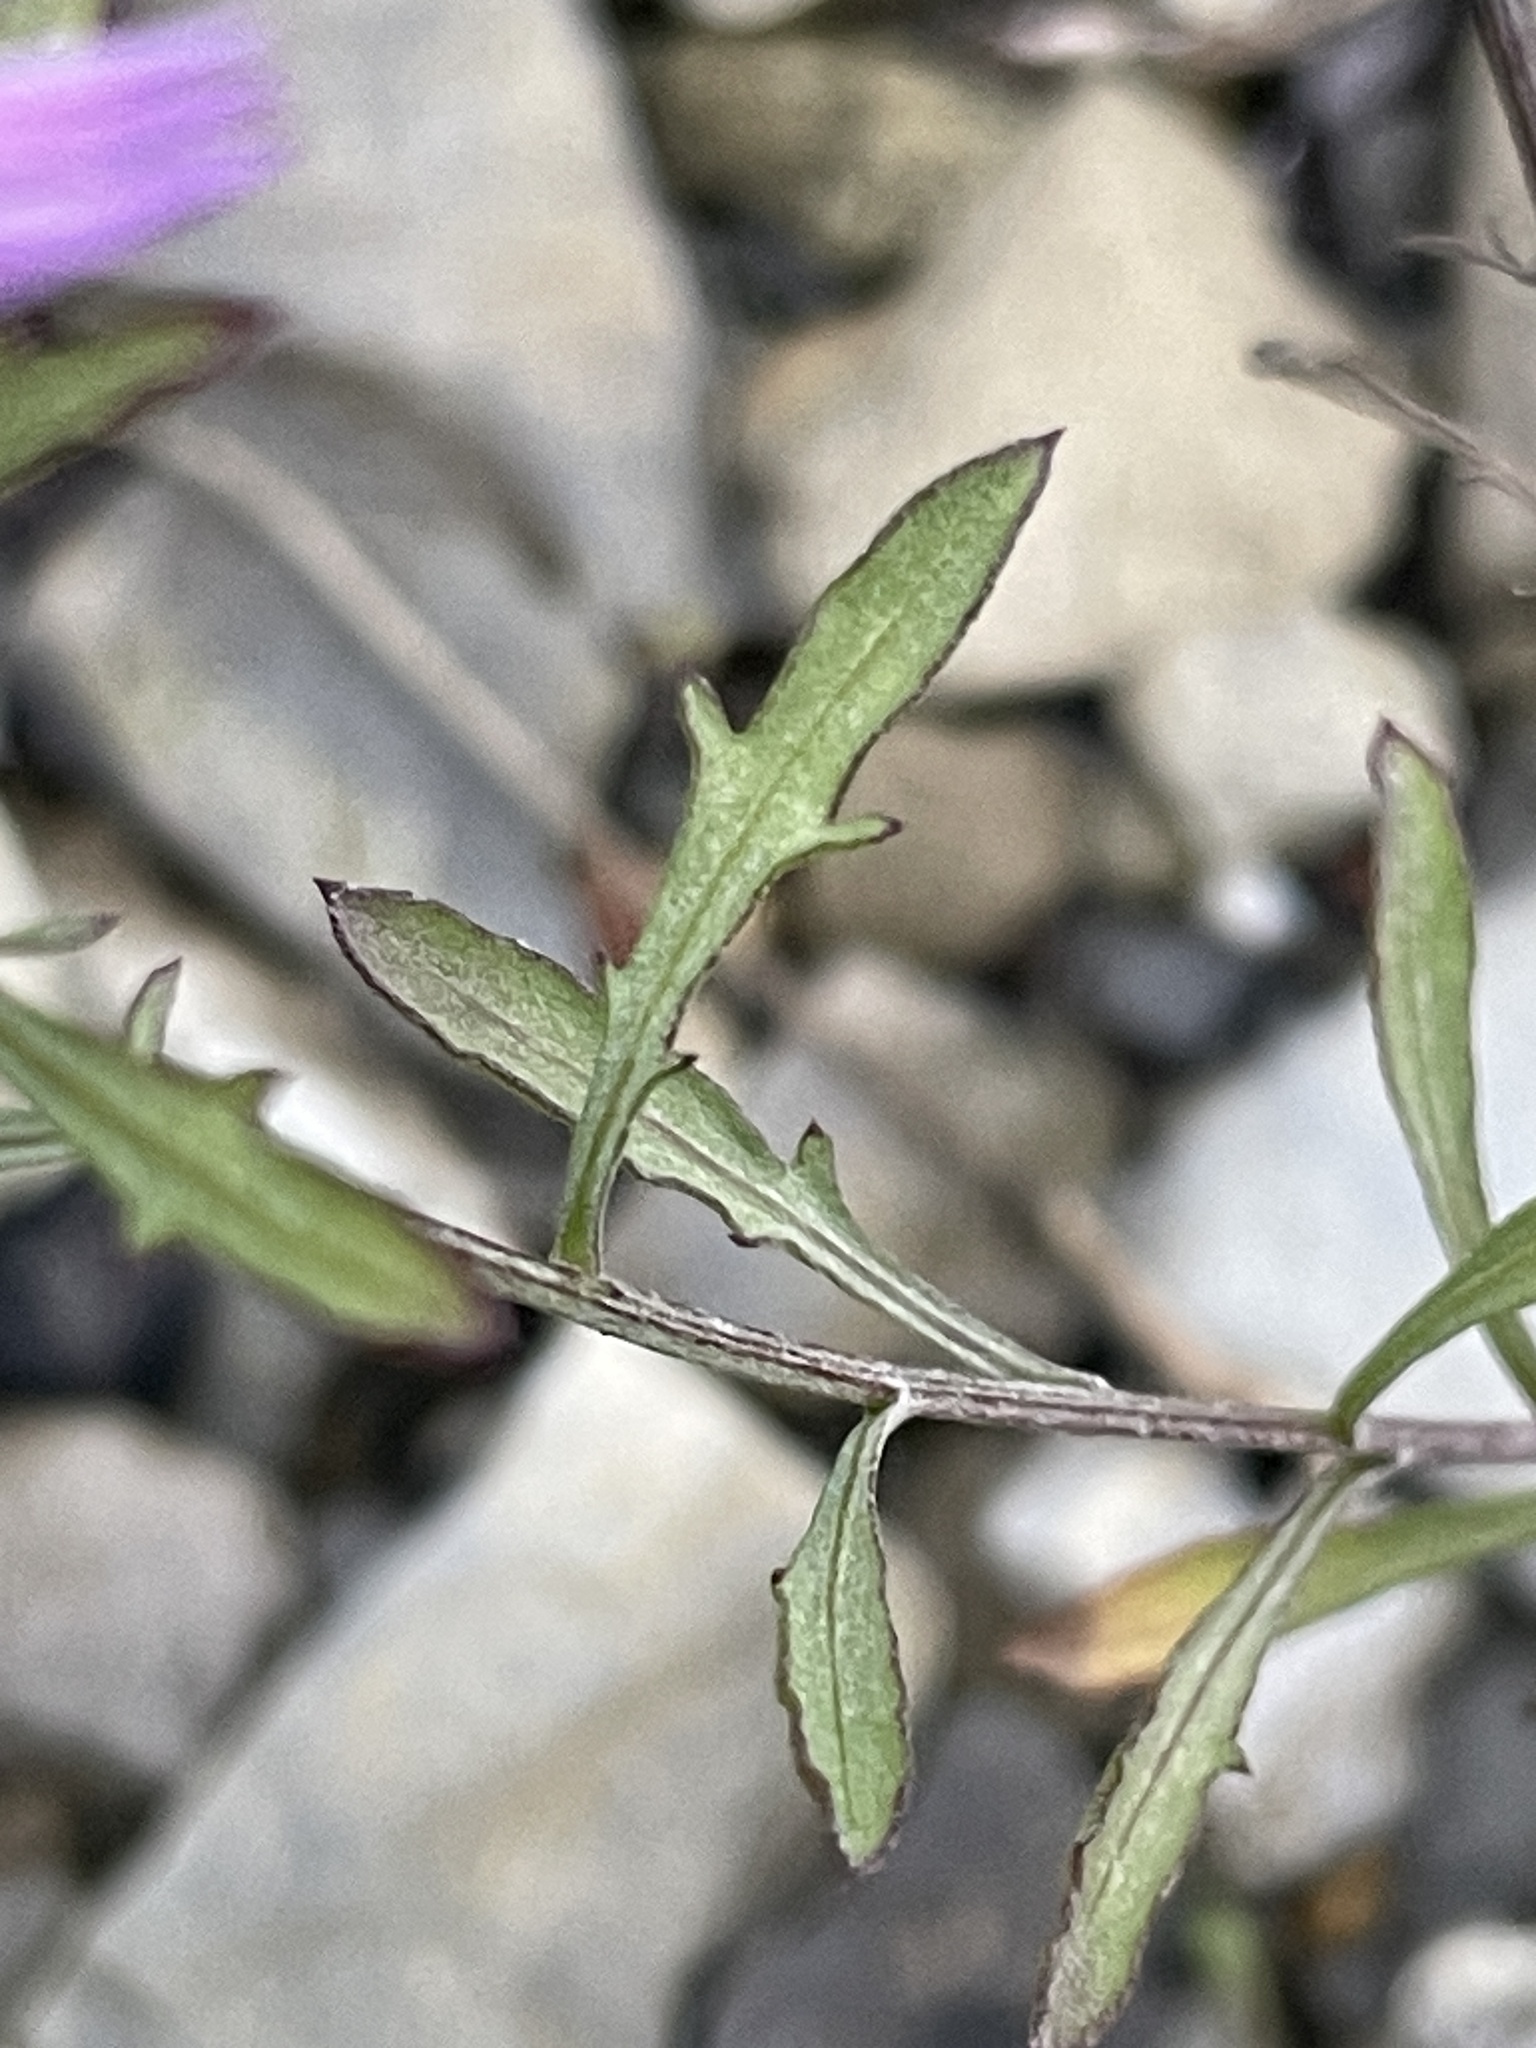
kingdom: Plantae
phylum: Tracheophyta
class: Magnoliopsida
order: Asterales
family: Asteraceae
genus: Centaurea
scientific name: Centaurea aplolepa
